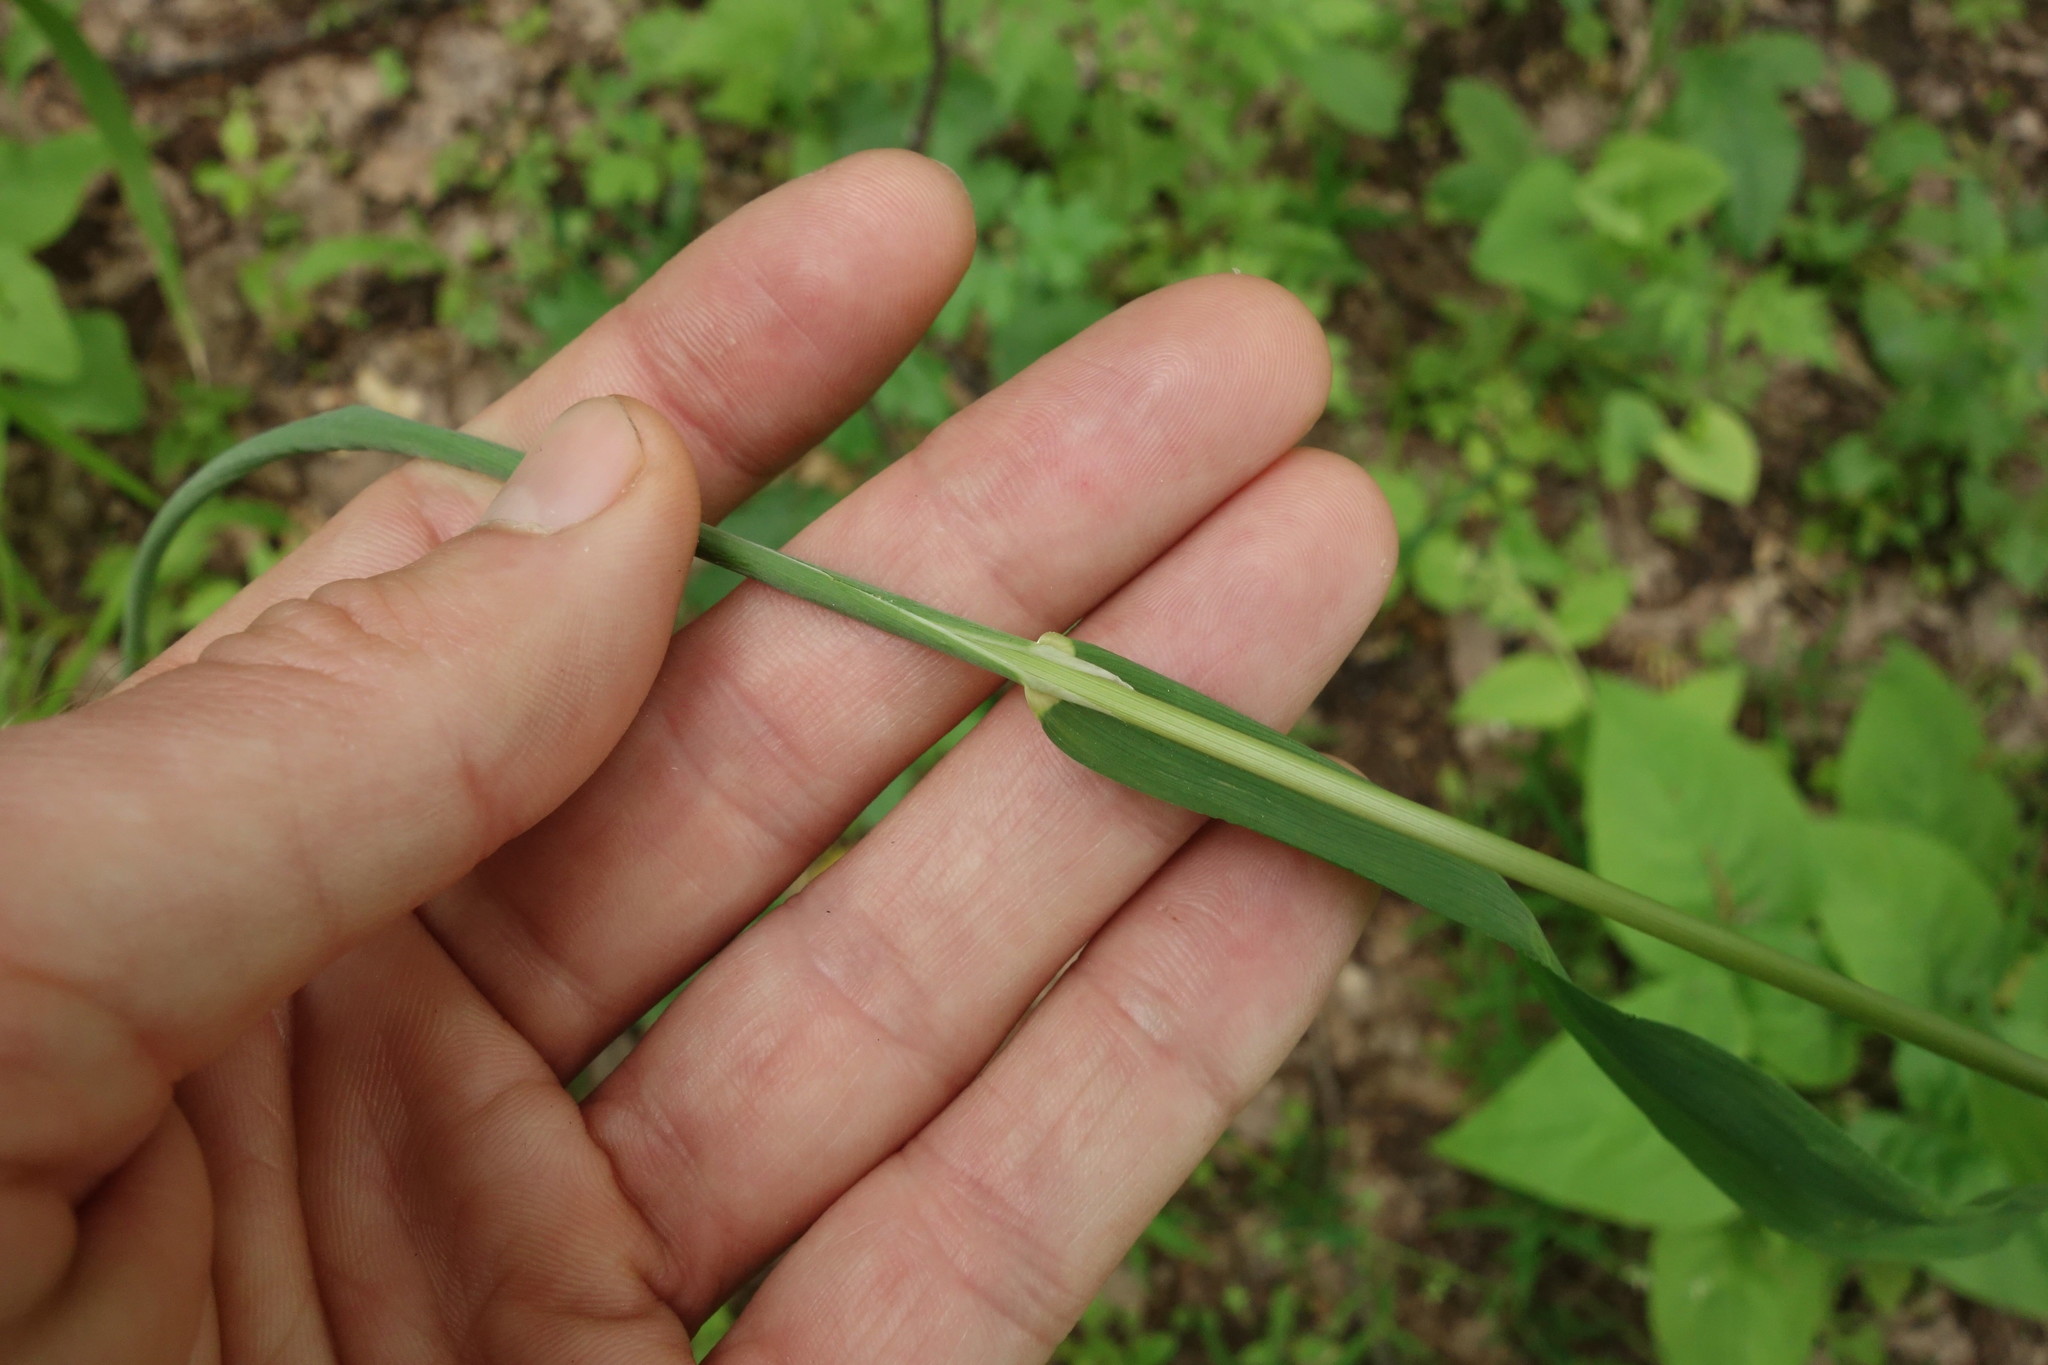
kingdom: Plantae
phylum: Tracheophyta
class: Liliopsida
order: Poales
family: Poaceae
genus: Milium
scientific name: Milium effusum
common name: Wood millet
